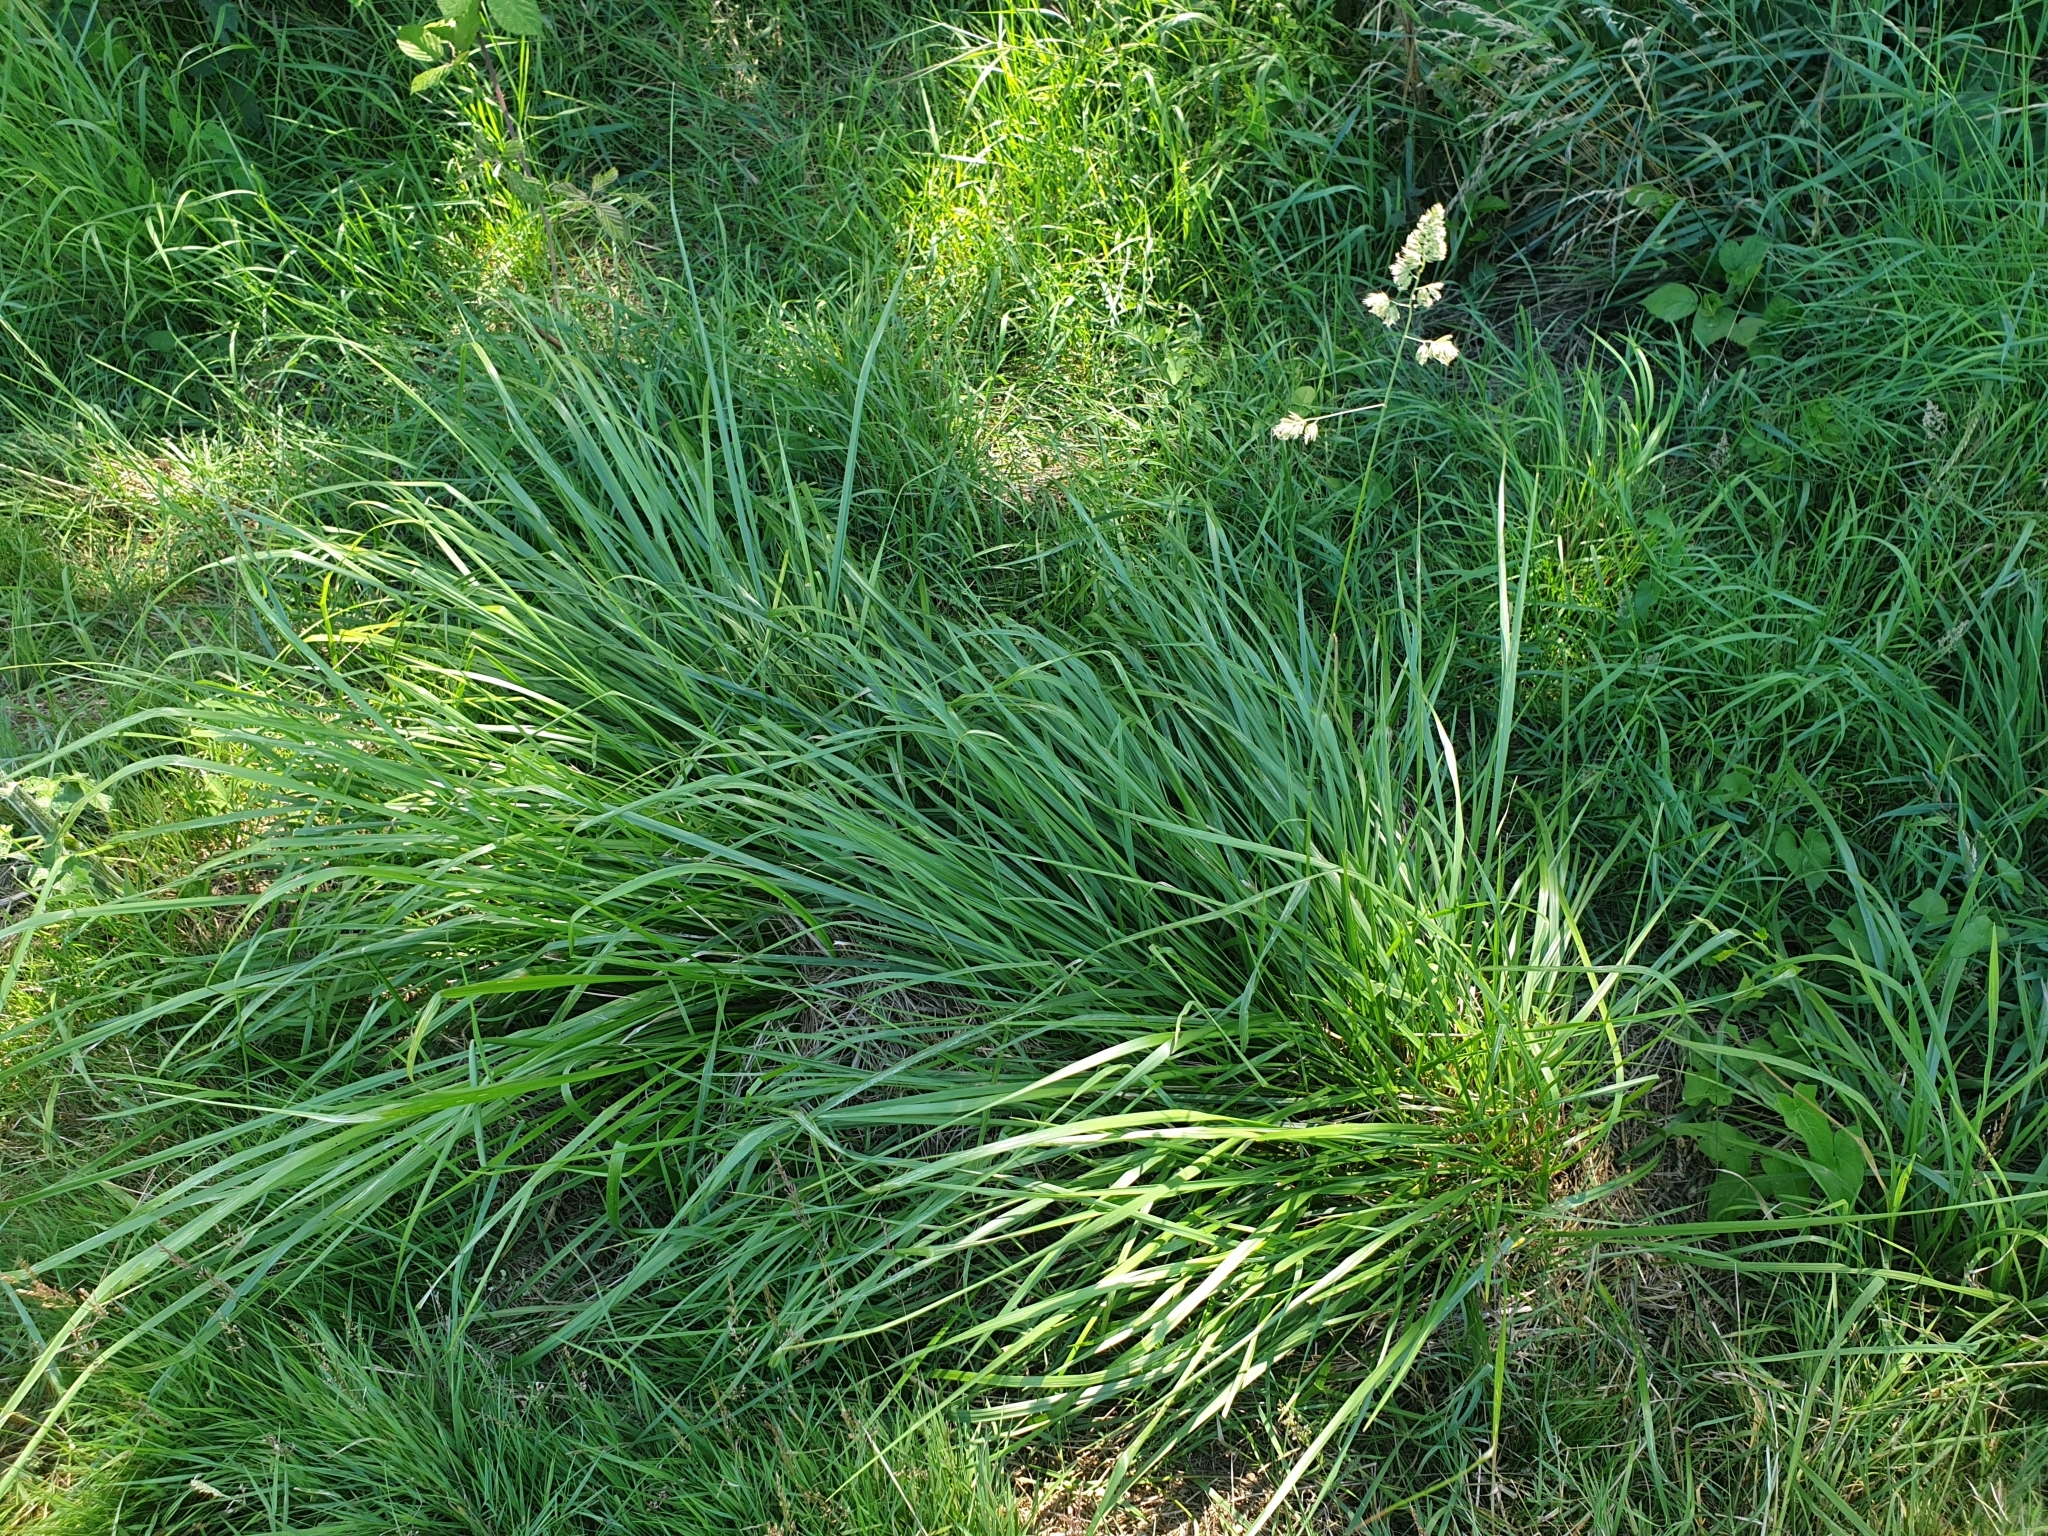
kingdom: Plantae
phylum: Tracheophyta
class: Liliopsida
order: Poales
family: Poaceae
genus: Dactylis
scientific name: Dactylis glomerata
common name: Orchardgrass
